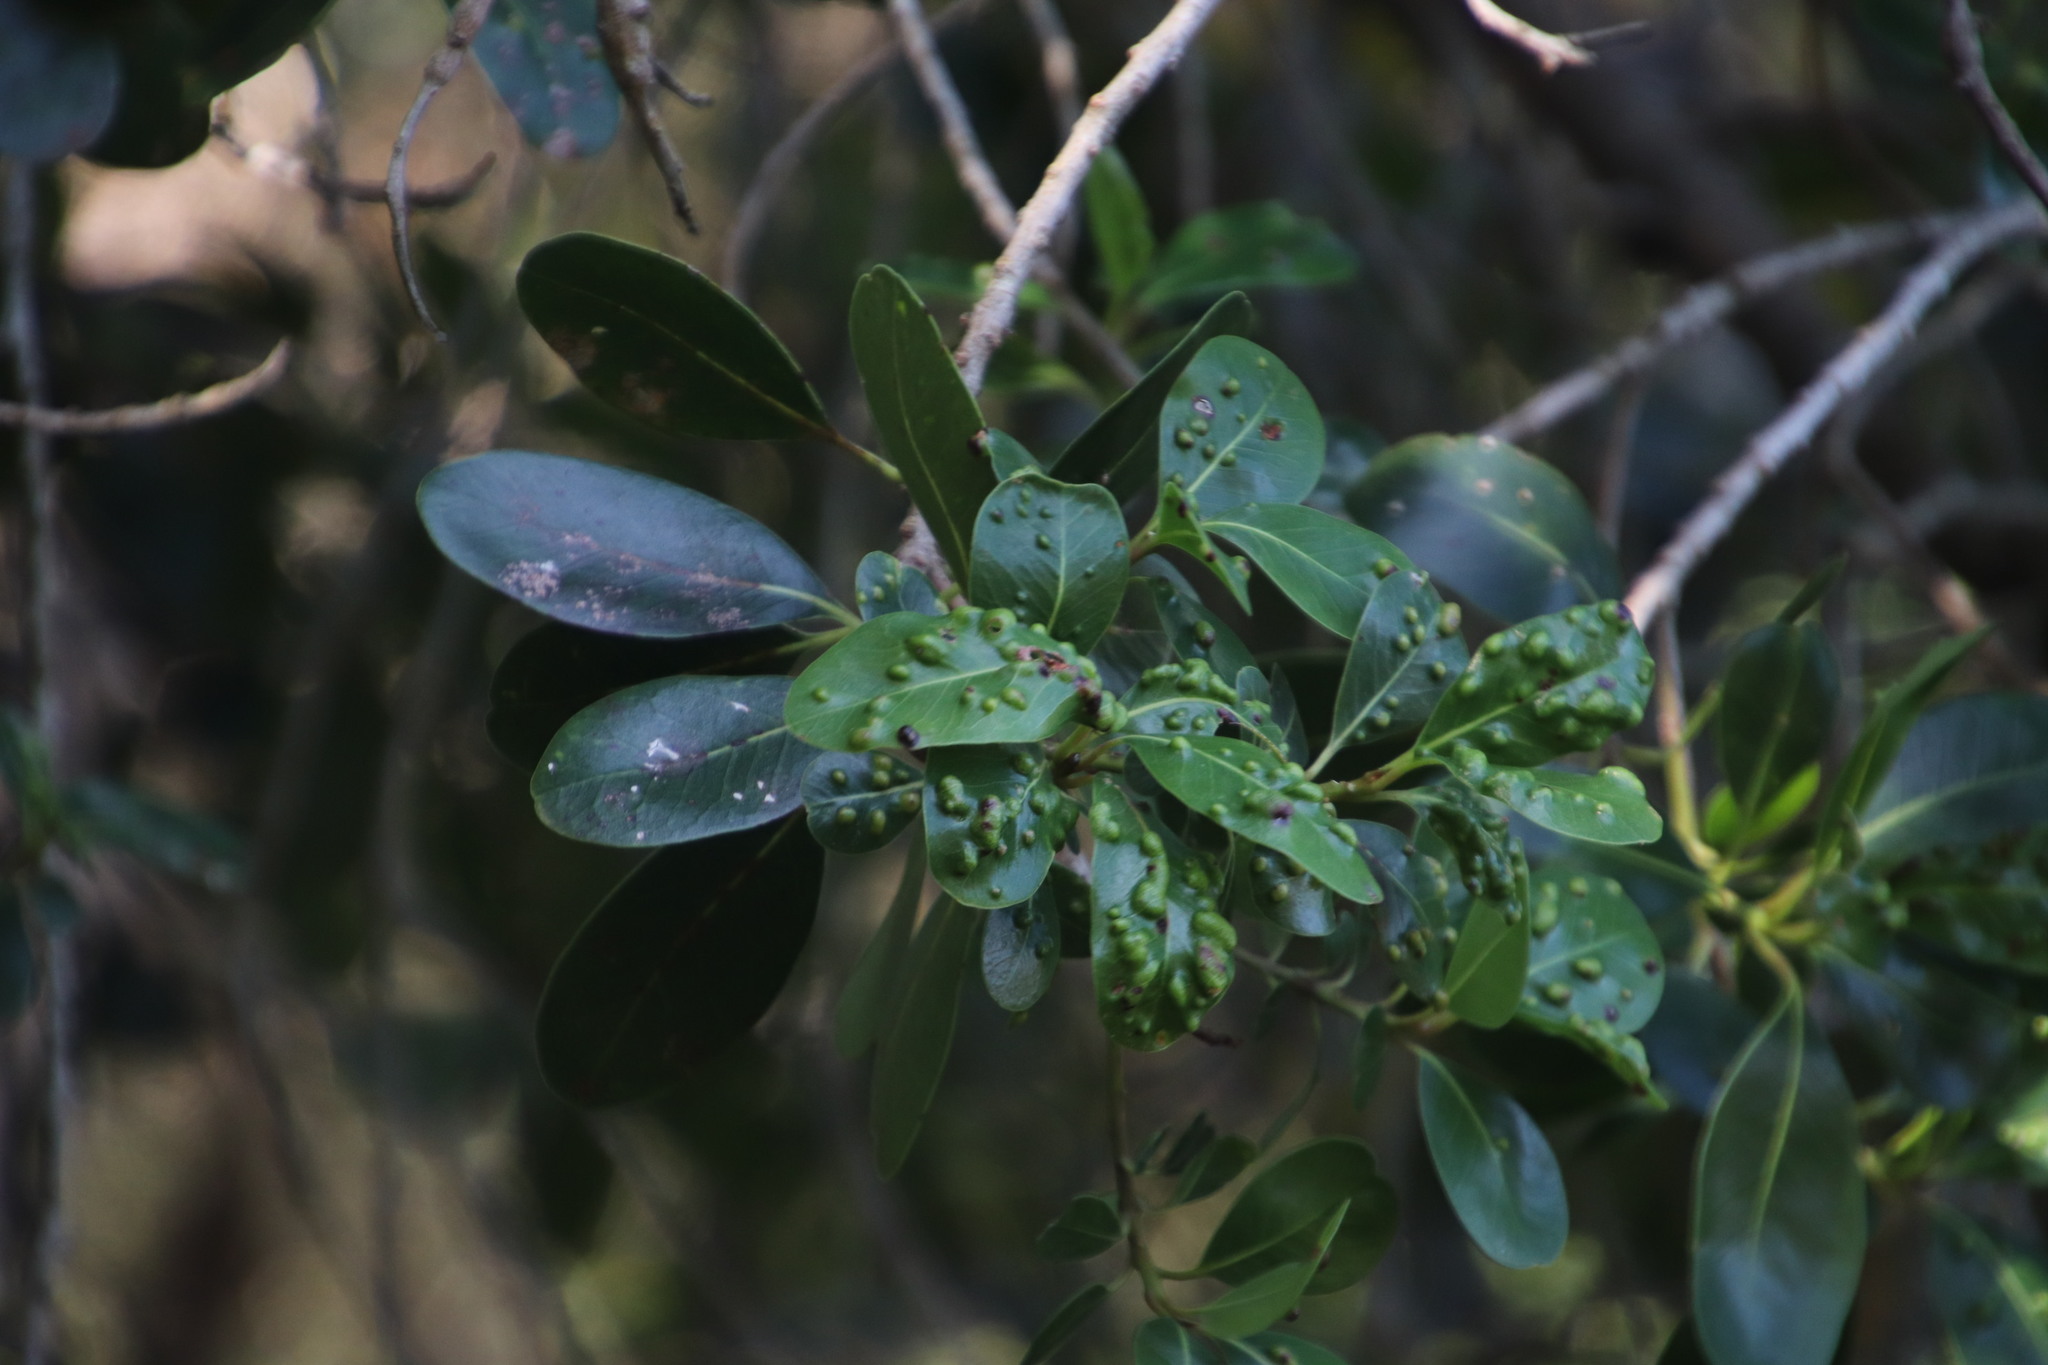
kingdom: Plantae
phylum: Tracheophyta
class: Magnoliopsida
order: Ericales
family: Sapotaceae
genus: Sideroxylon
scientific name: Sideroxylon inerme
